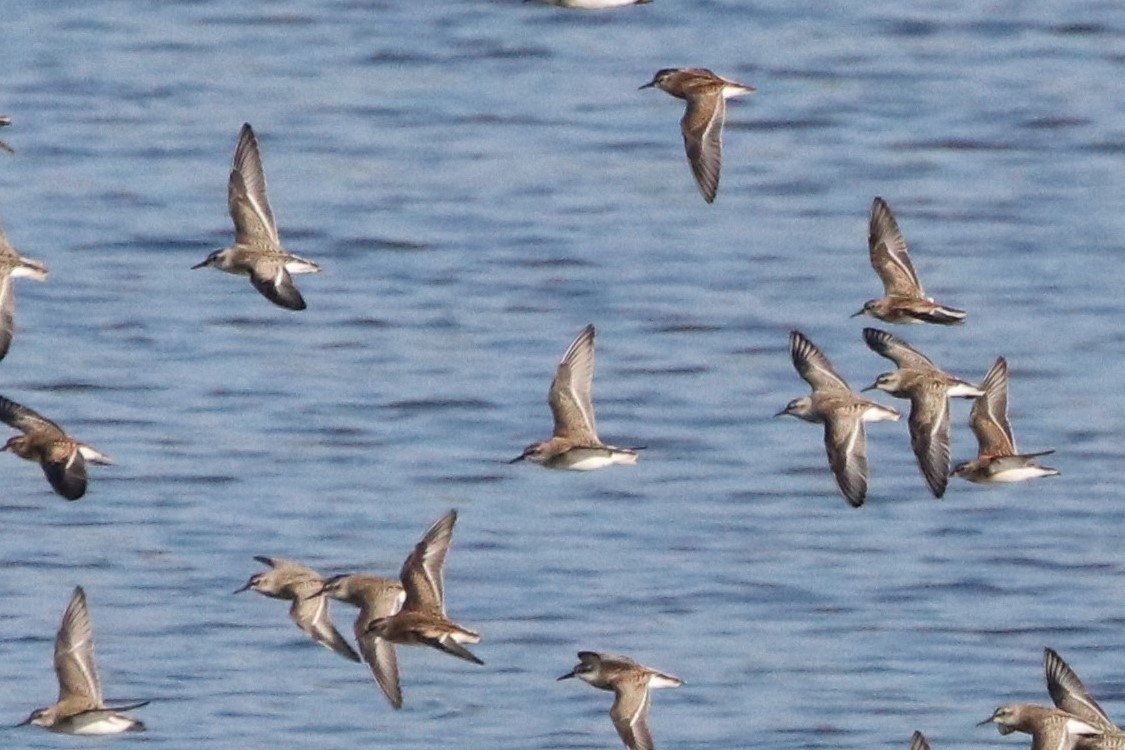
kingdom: Animalia
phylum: Chordata
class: Aves
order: Charadriiformes
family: Scolopacidae
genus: Calidris
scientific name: Calidris pusilla
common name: Semipalmated sandpiper
